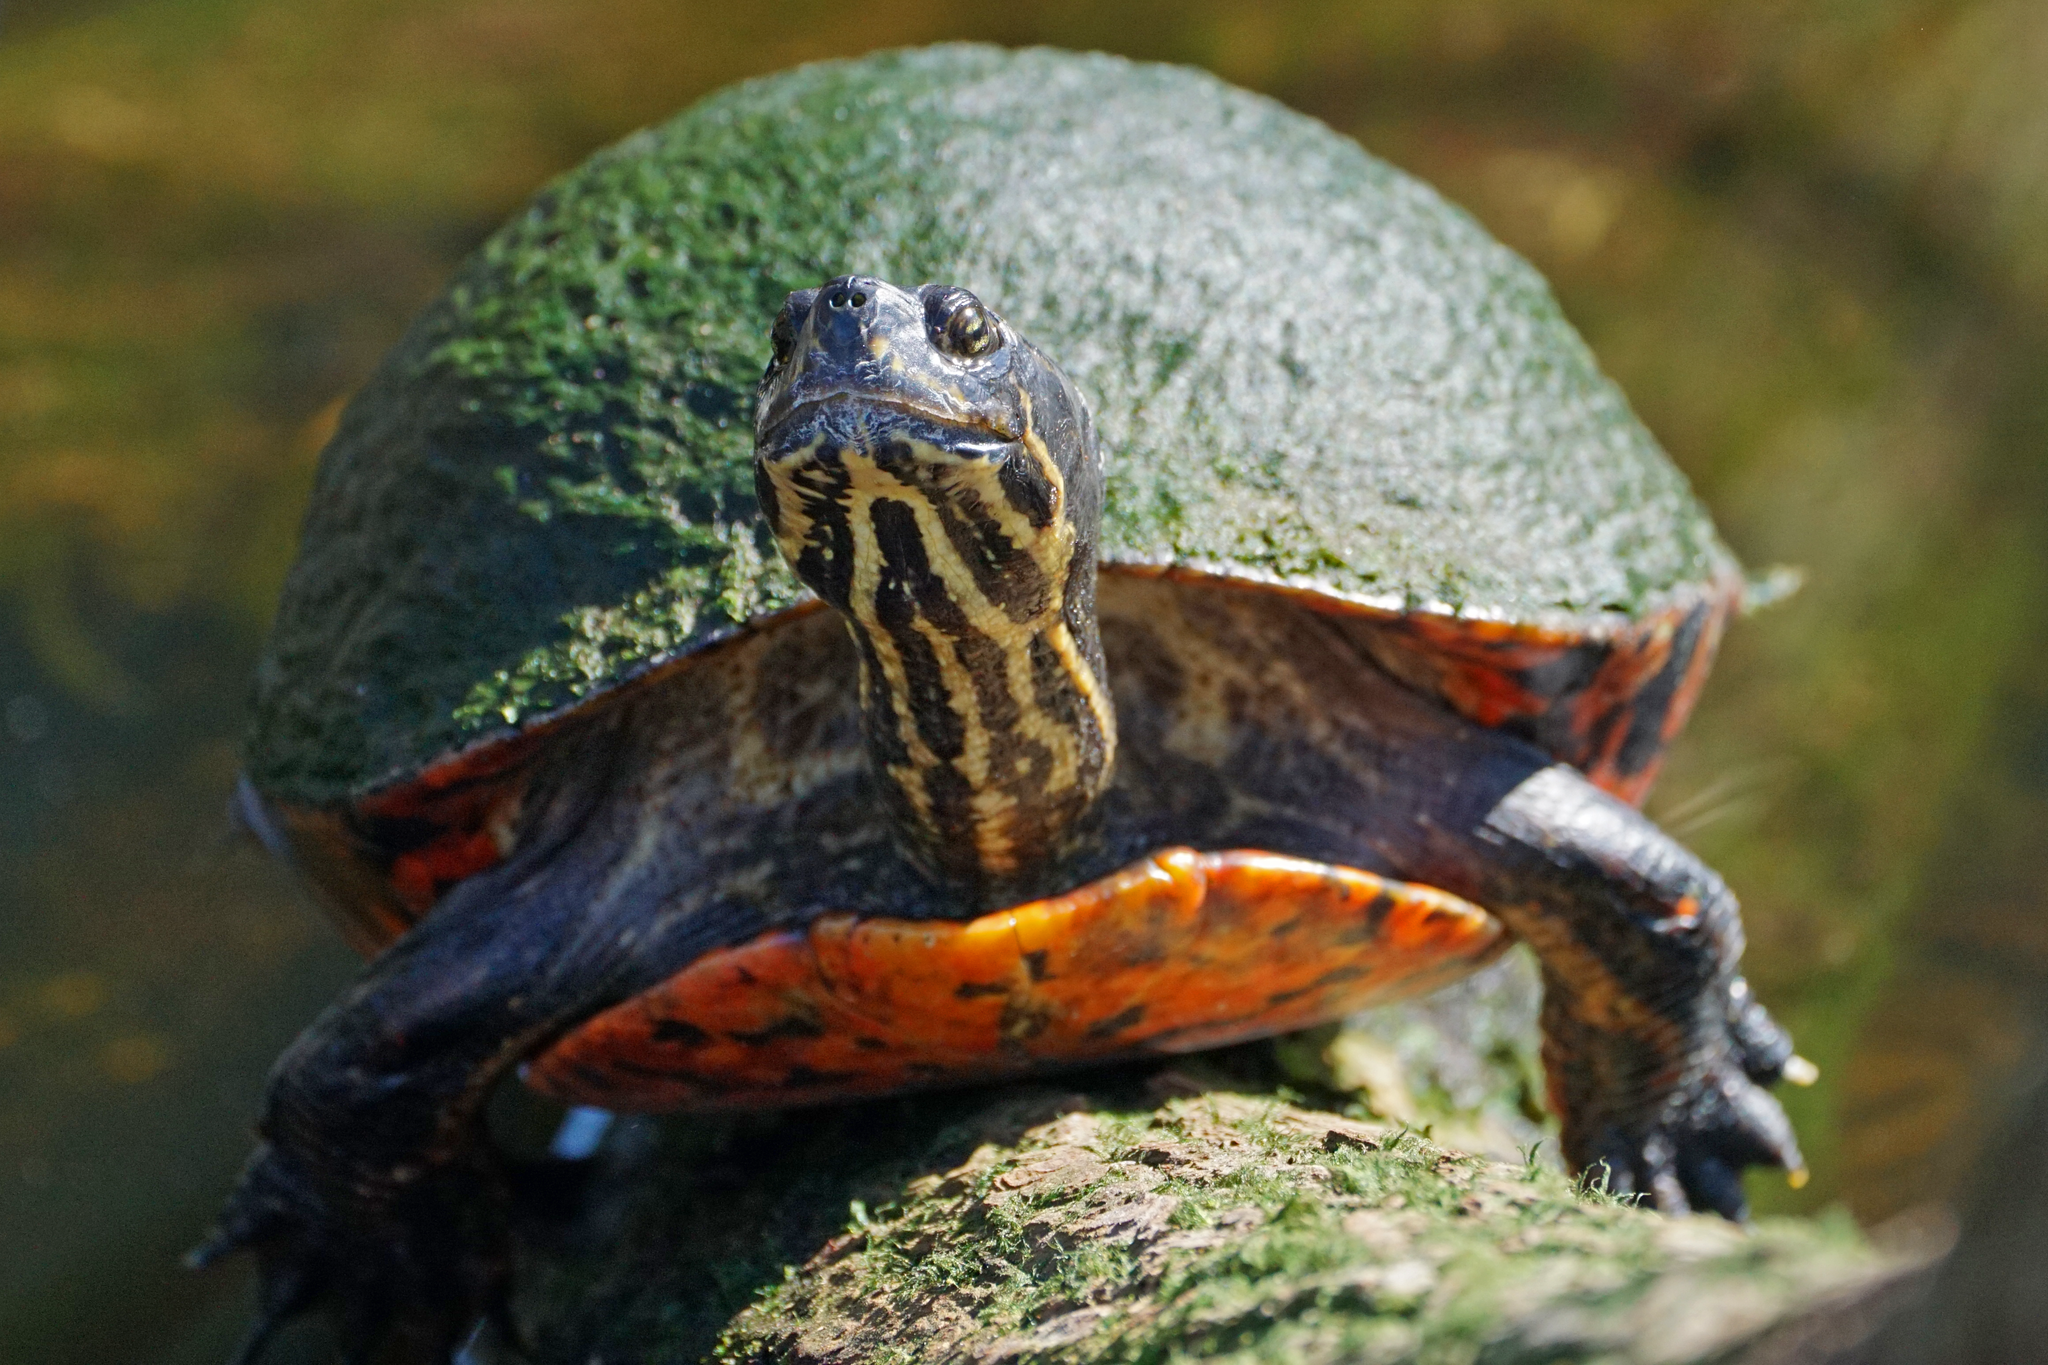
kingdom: Animalia
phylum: Chordata
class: Testudines
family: Emydidae
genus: Pseudemys
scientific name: Pseudemys nelsoni
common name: Florida red-bellied turtle
